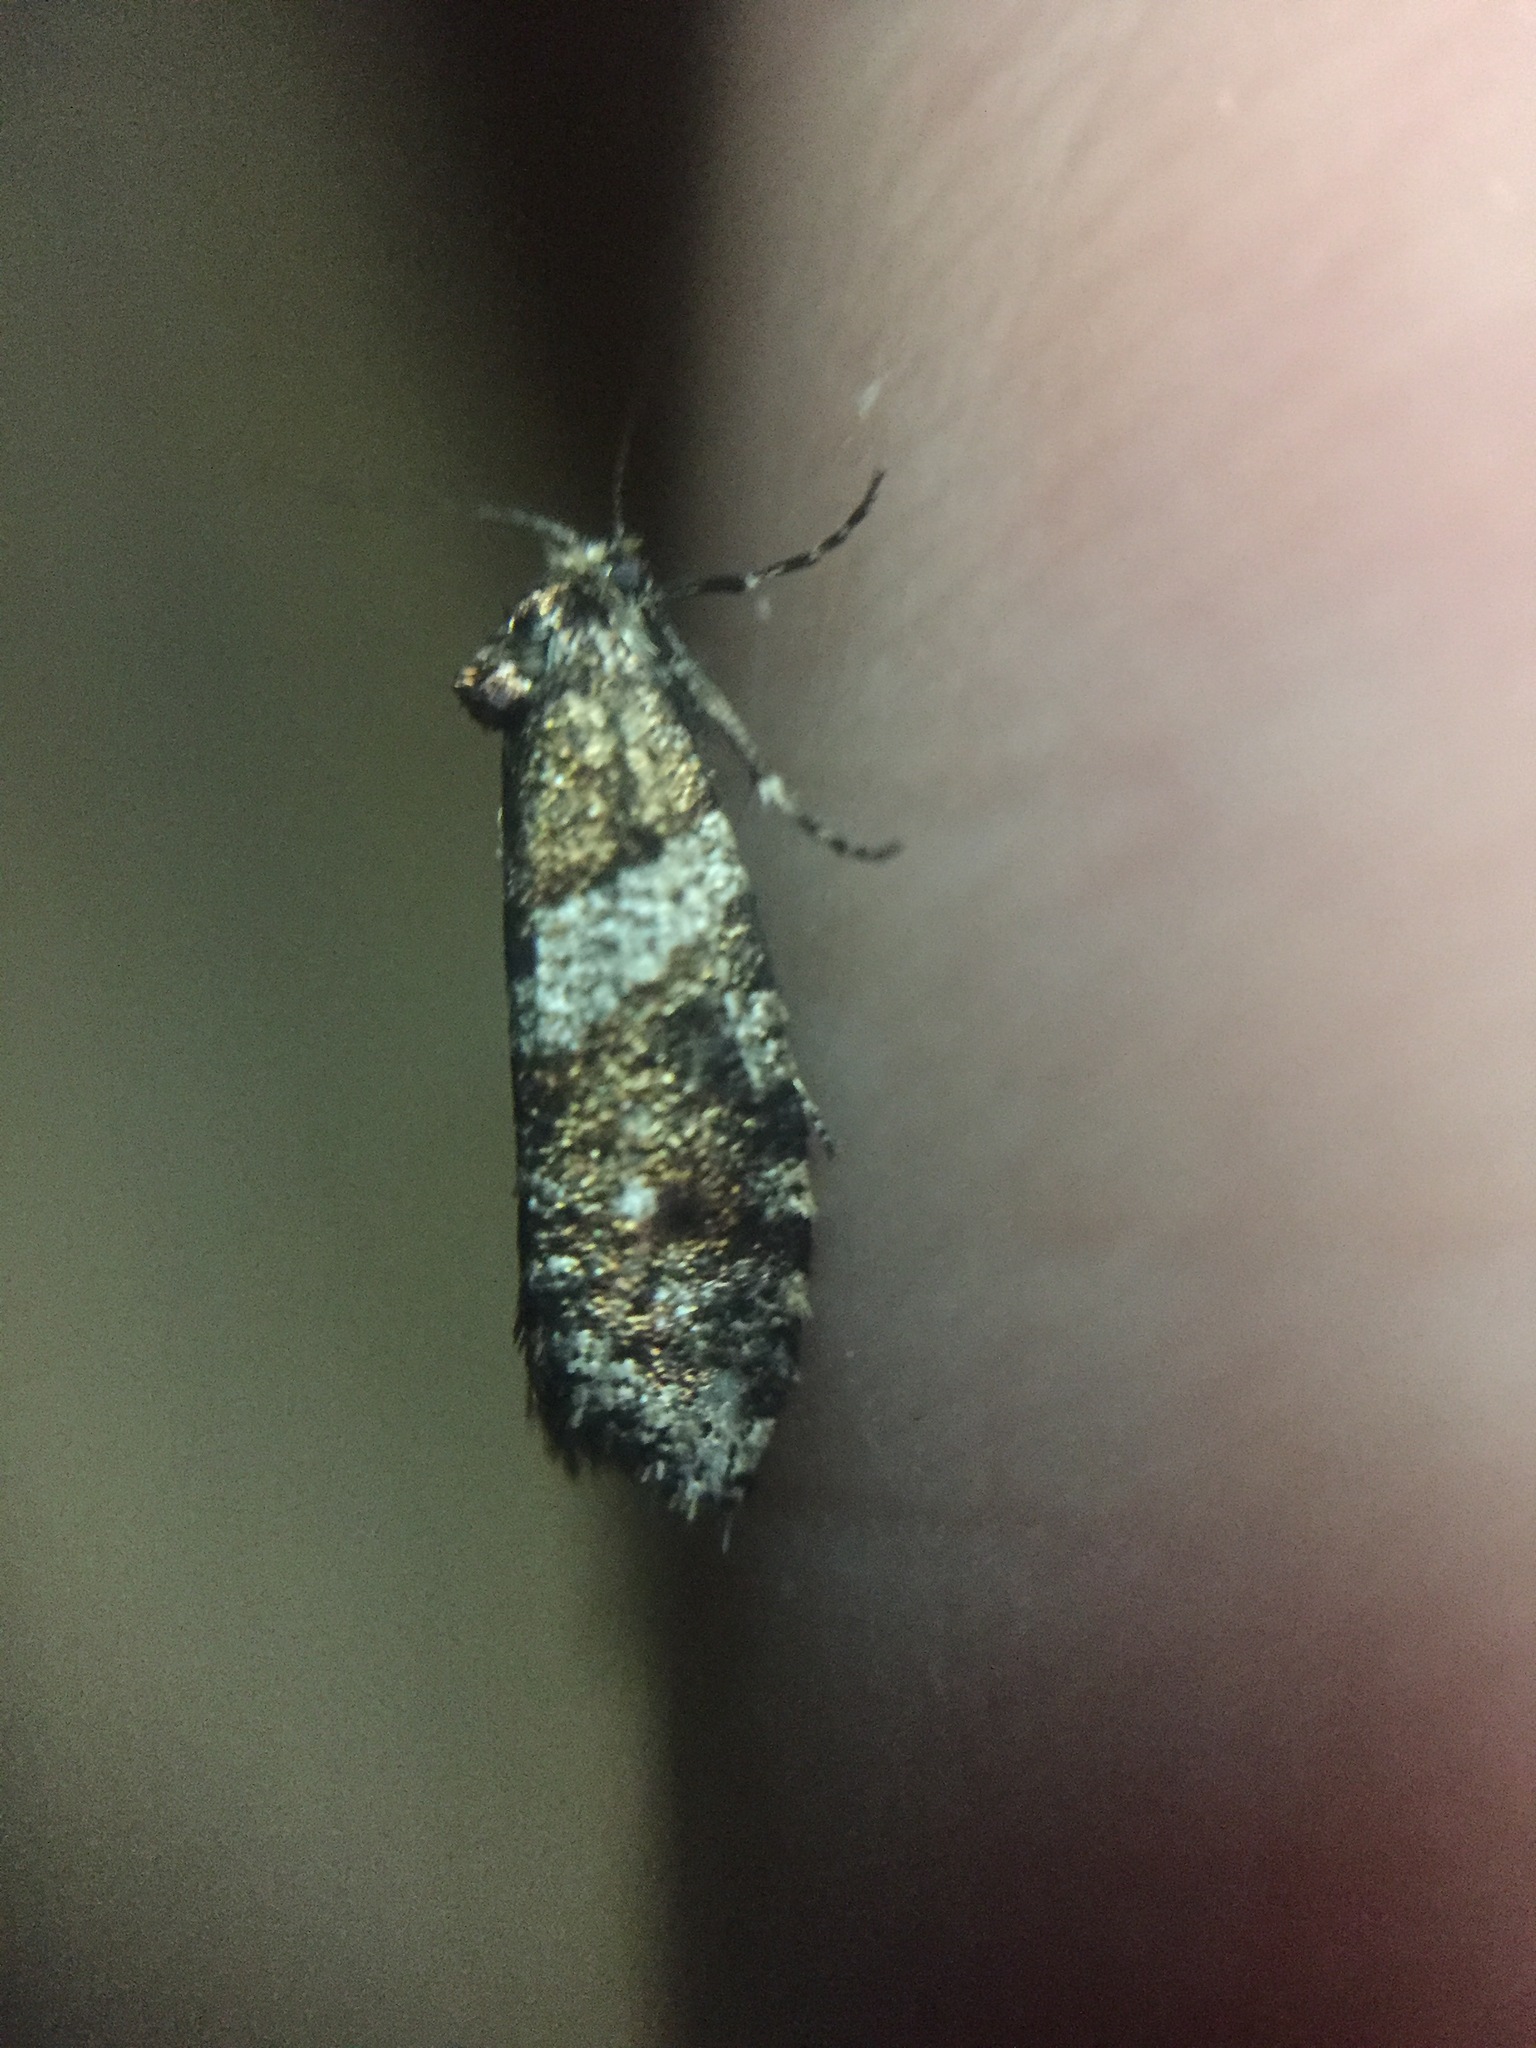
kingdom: Animalia
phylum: Arthropoda
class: Insecta
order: Lepidoptera
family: Psychidae
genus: Lepidoscia
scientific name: Lepidoscia heliochares
